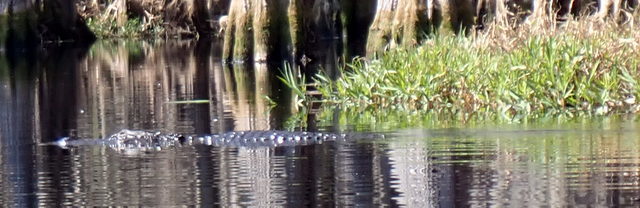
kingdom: Animalia
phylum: Chordata
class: Crocodylia
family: Alligatoridae
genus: Alligator
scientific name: Alligator mississippiensis
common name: American alligator
